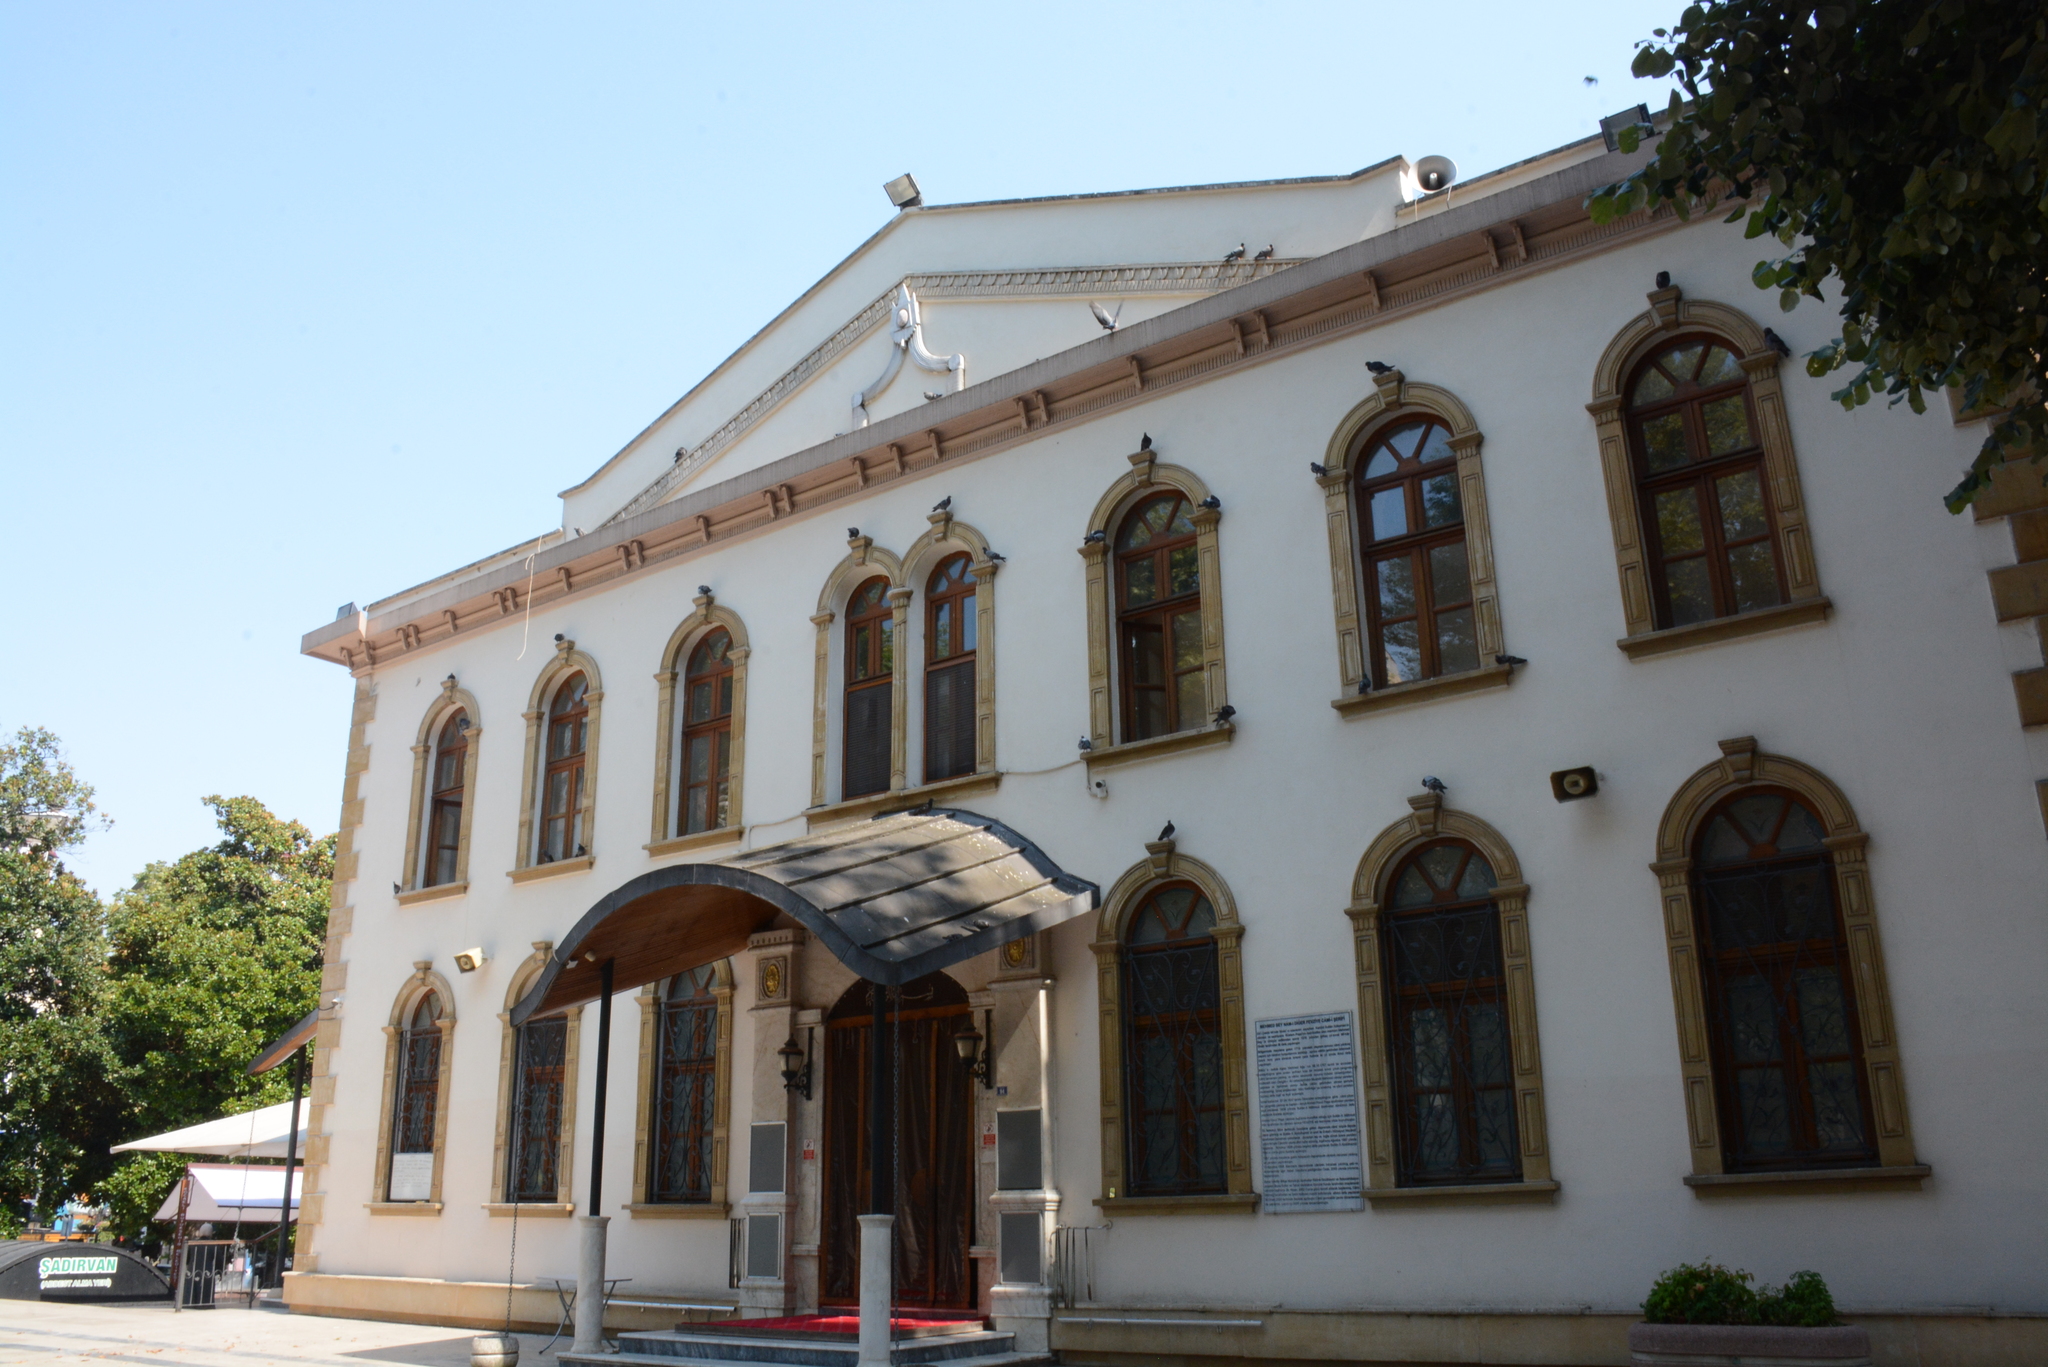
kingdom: Animalia
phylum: Chordata
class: Aves
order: Columbiformes
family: Columbidae
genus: Columba
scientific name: Columba livia
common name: Rock pigeon
